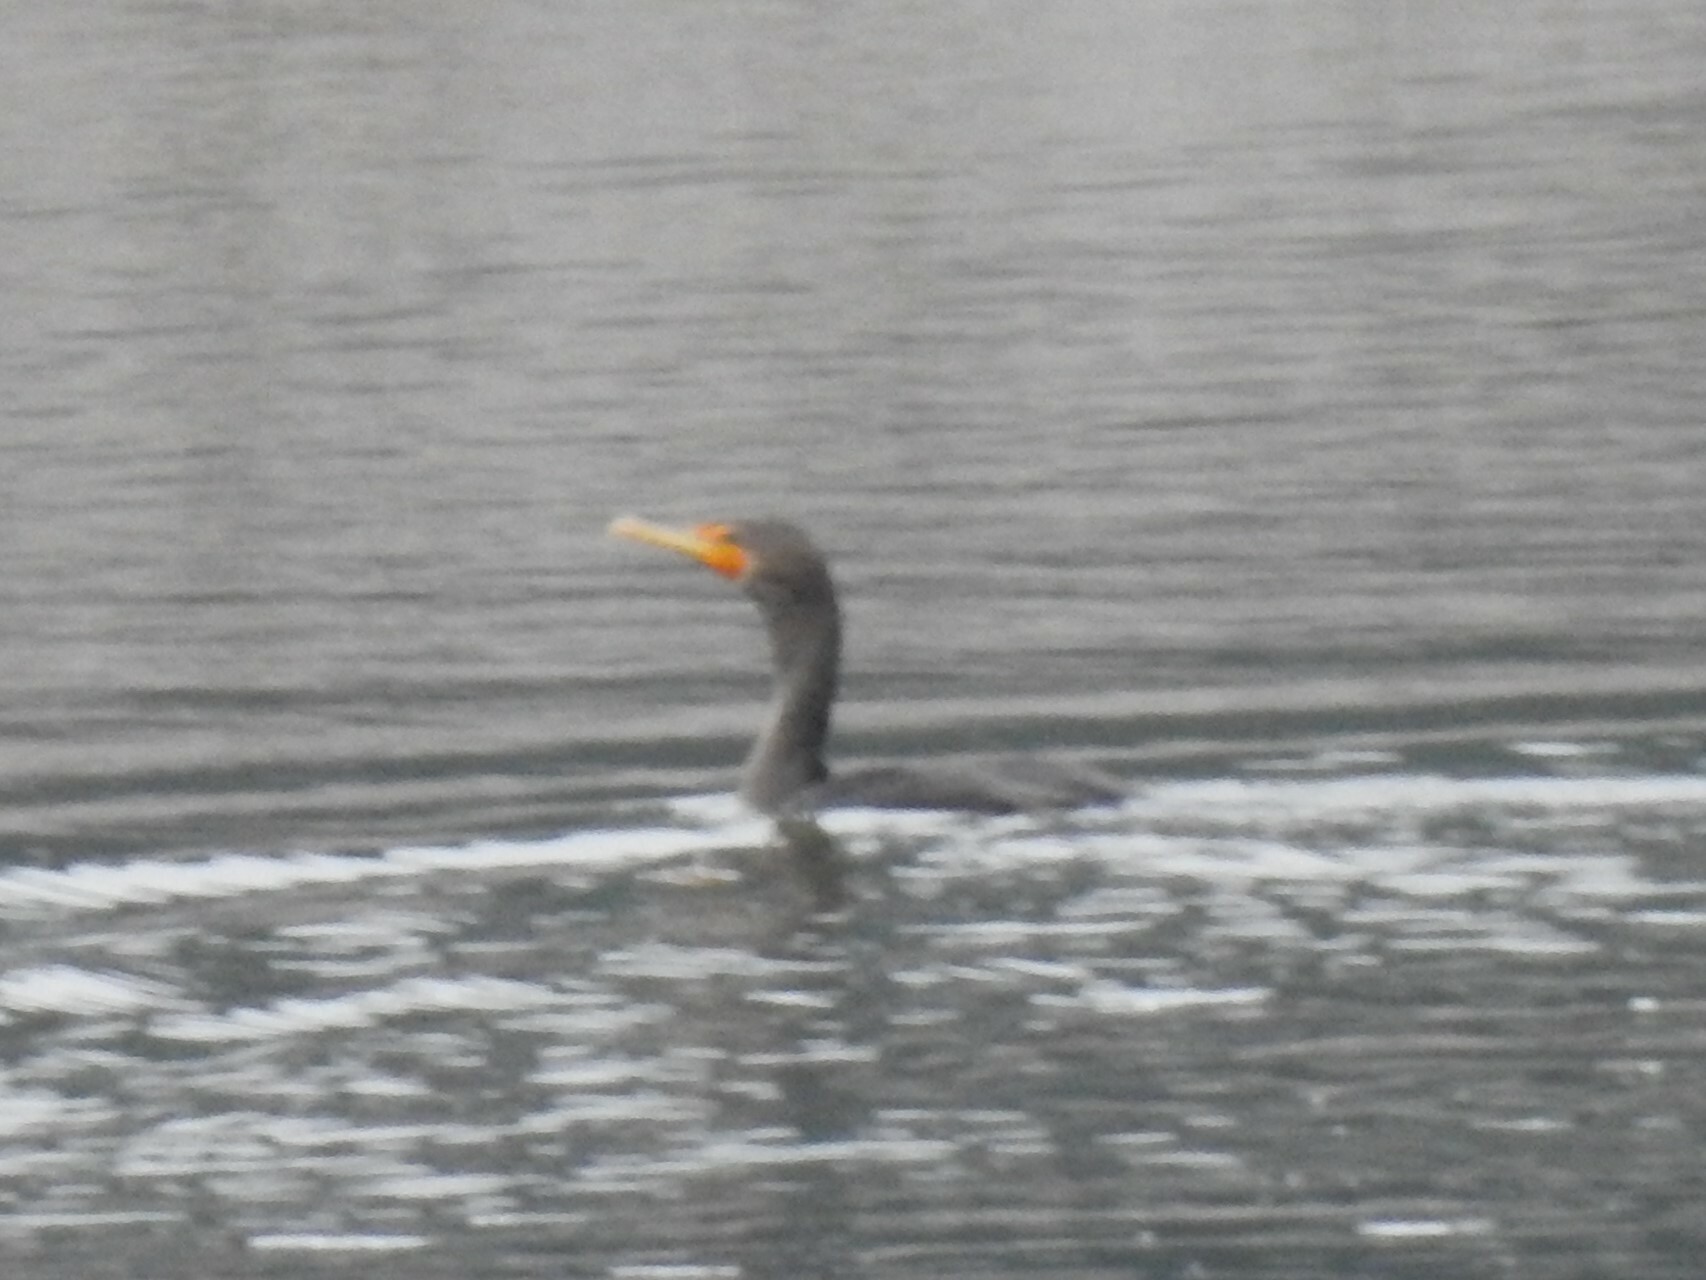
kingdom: Animalia
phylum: Chordata
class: Aves
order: Suliformes
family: Phalacrocoracidae
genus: Phalacrocorax
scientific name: Phalacrocorax auritus
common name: Double-crested cormorant
